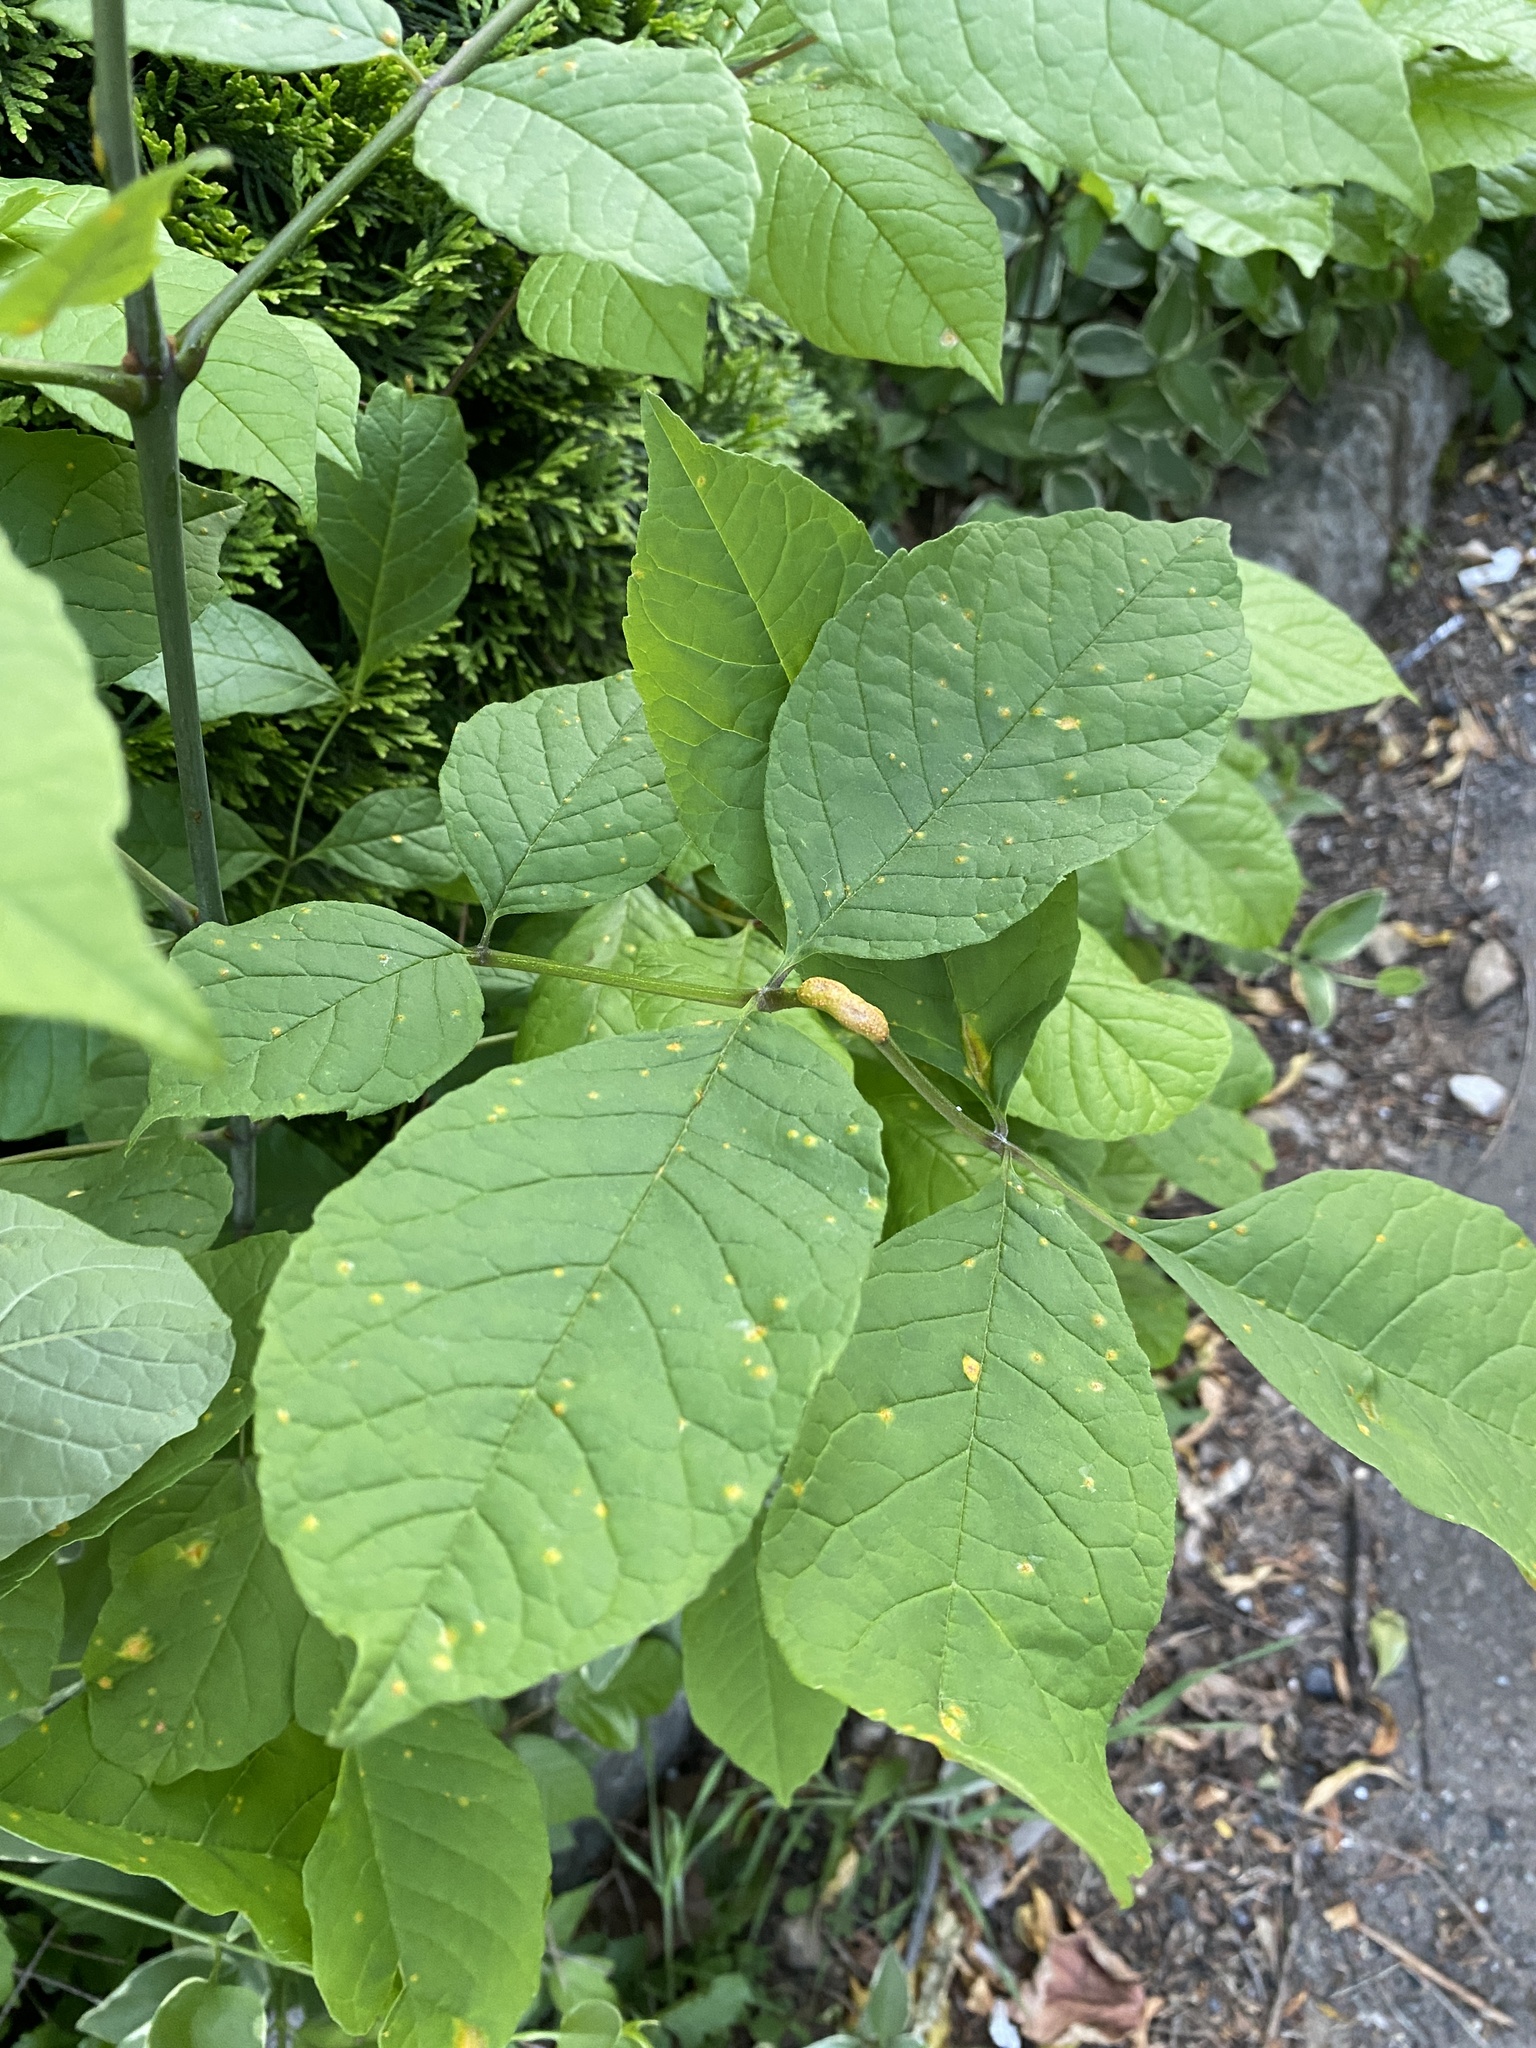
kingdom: Fungi
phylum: Basidiomycota
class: Pucciniomycetes
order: Pucciniales
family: Pucciniaceae
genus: Puccinia
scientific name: Puccinia sparganioidis
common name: Ash rust
